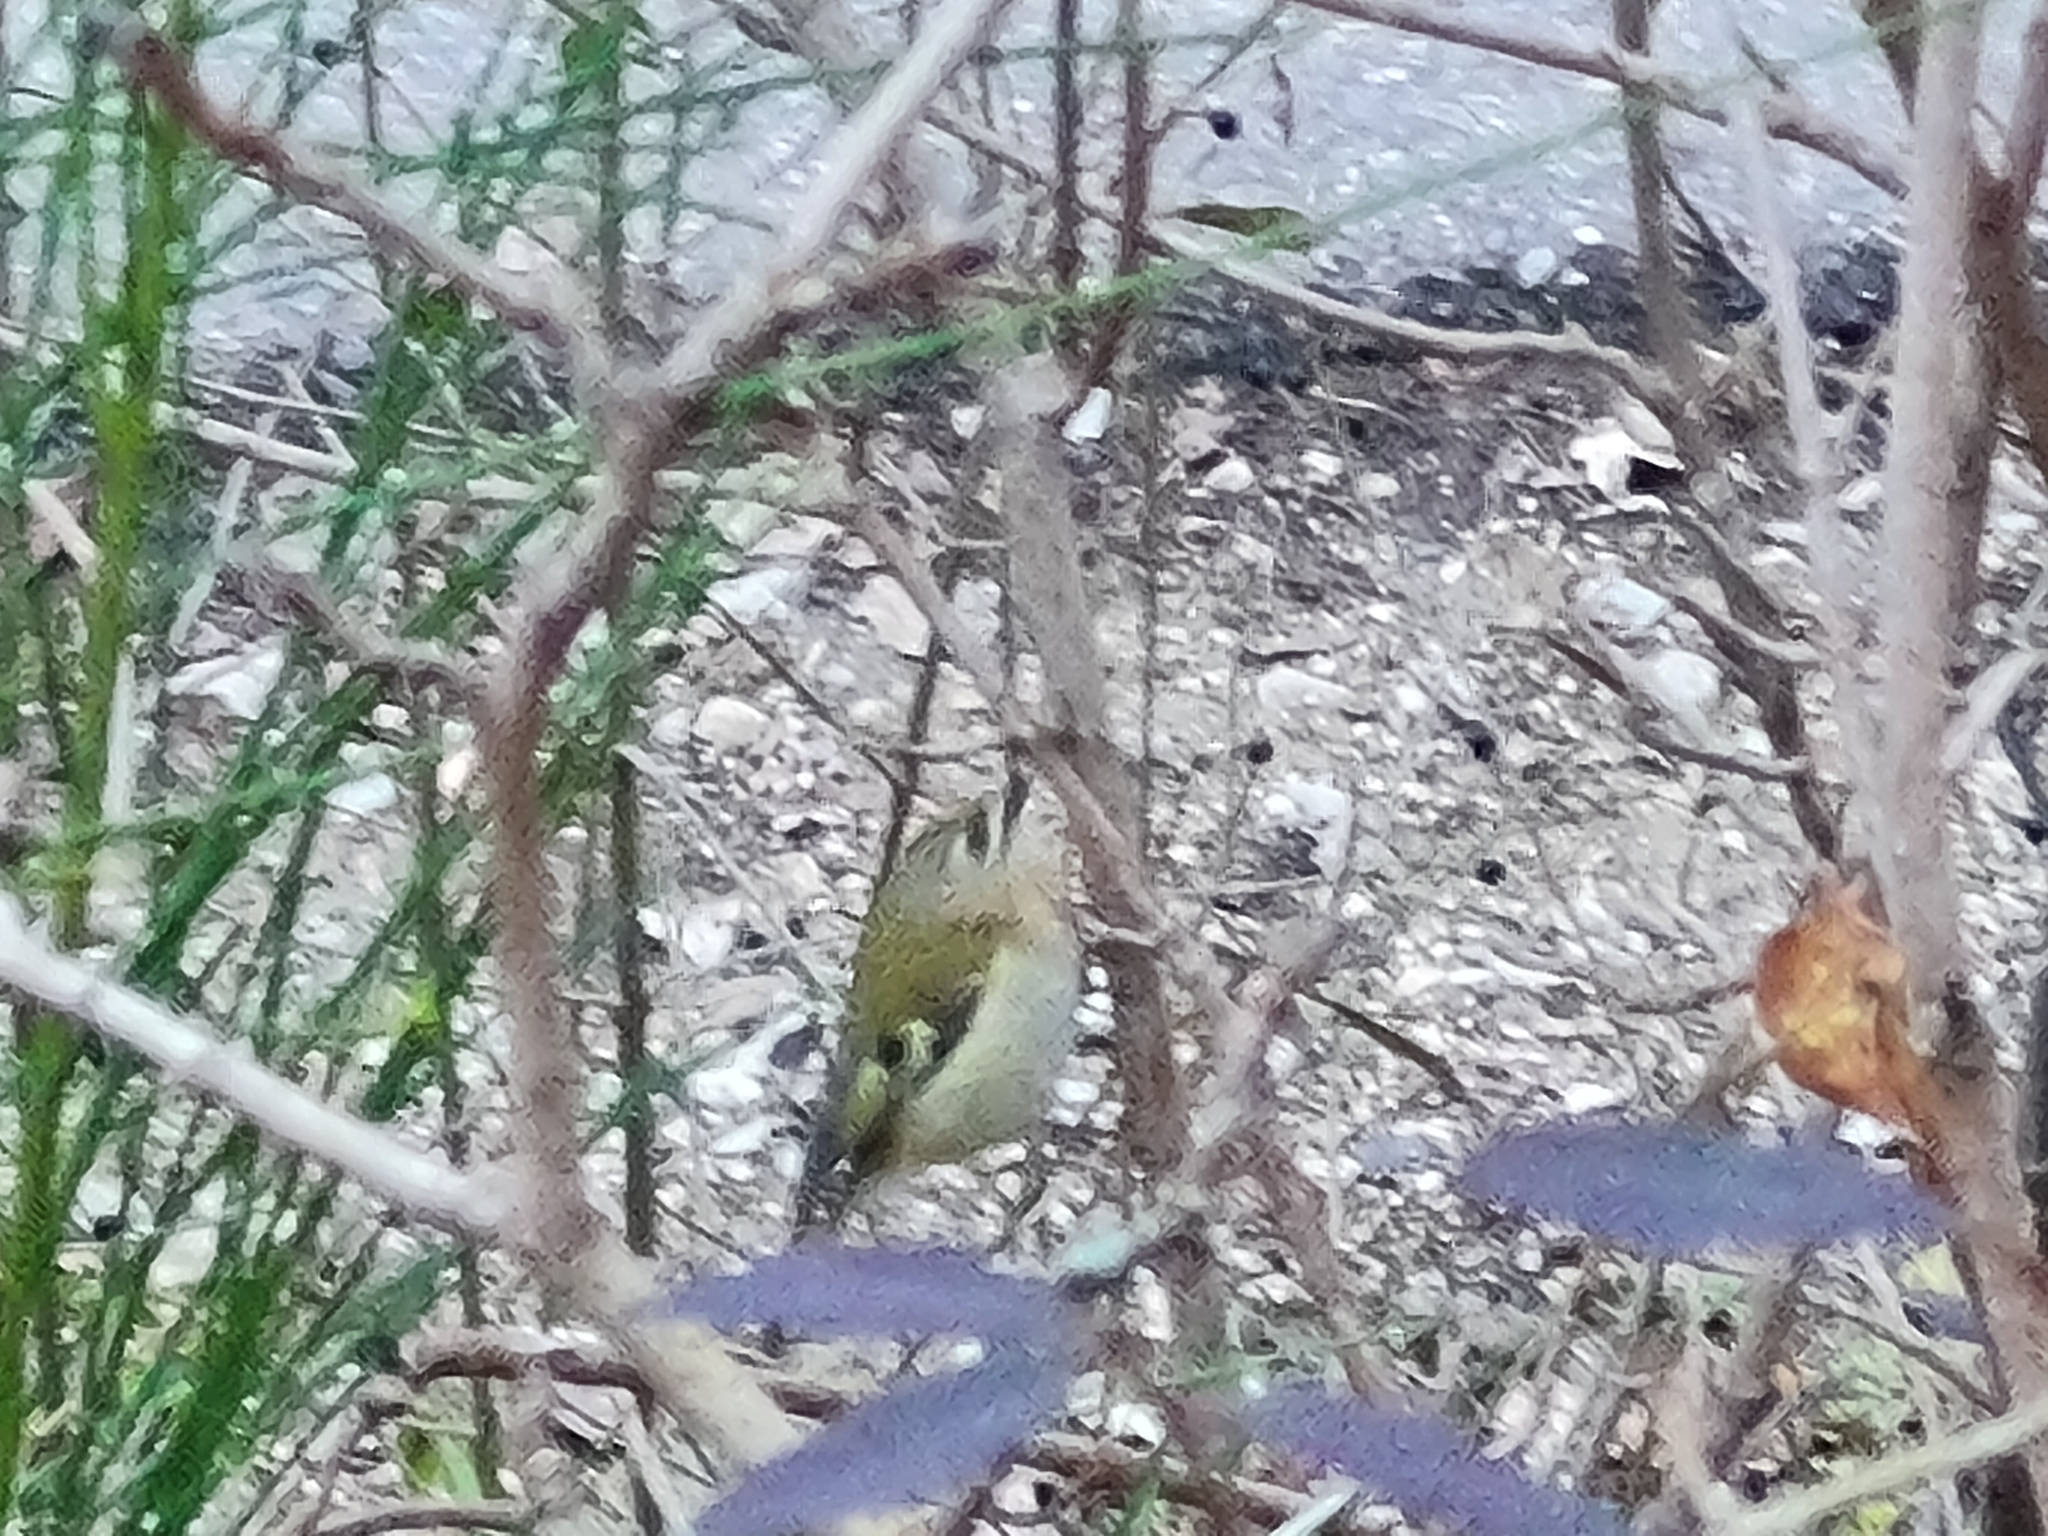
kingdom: Animalia
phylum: Chordata
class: Aves
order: Passeriformes
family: Regulidae
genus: Regulus
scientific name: Regulus regulus
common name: Goldcrest
